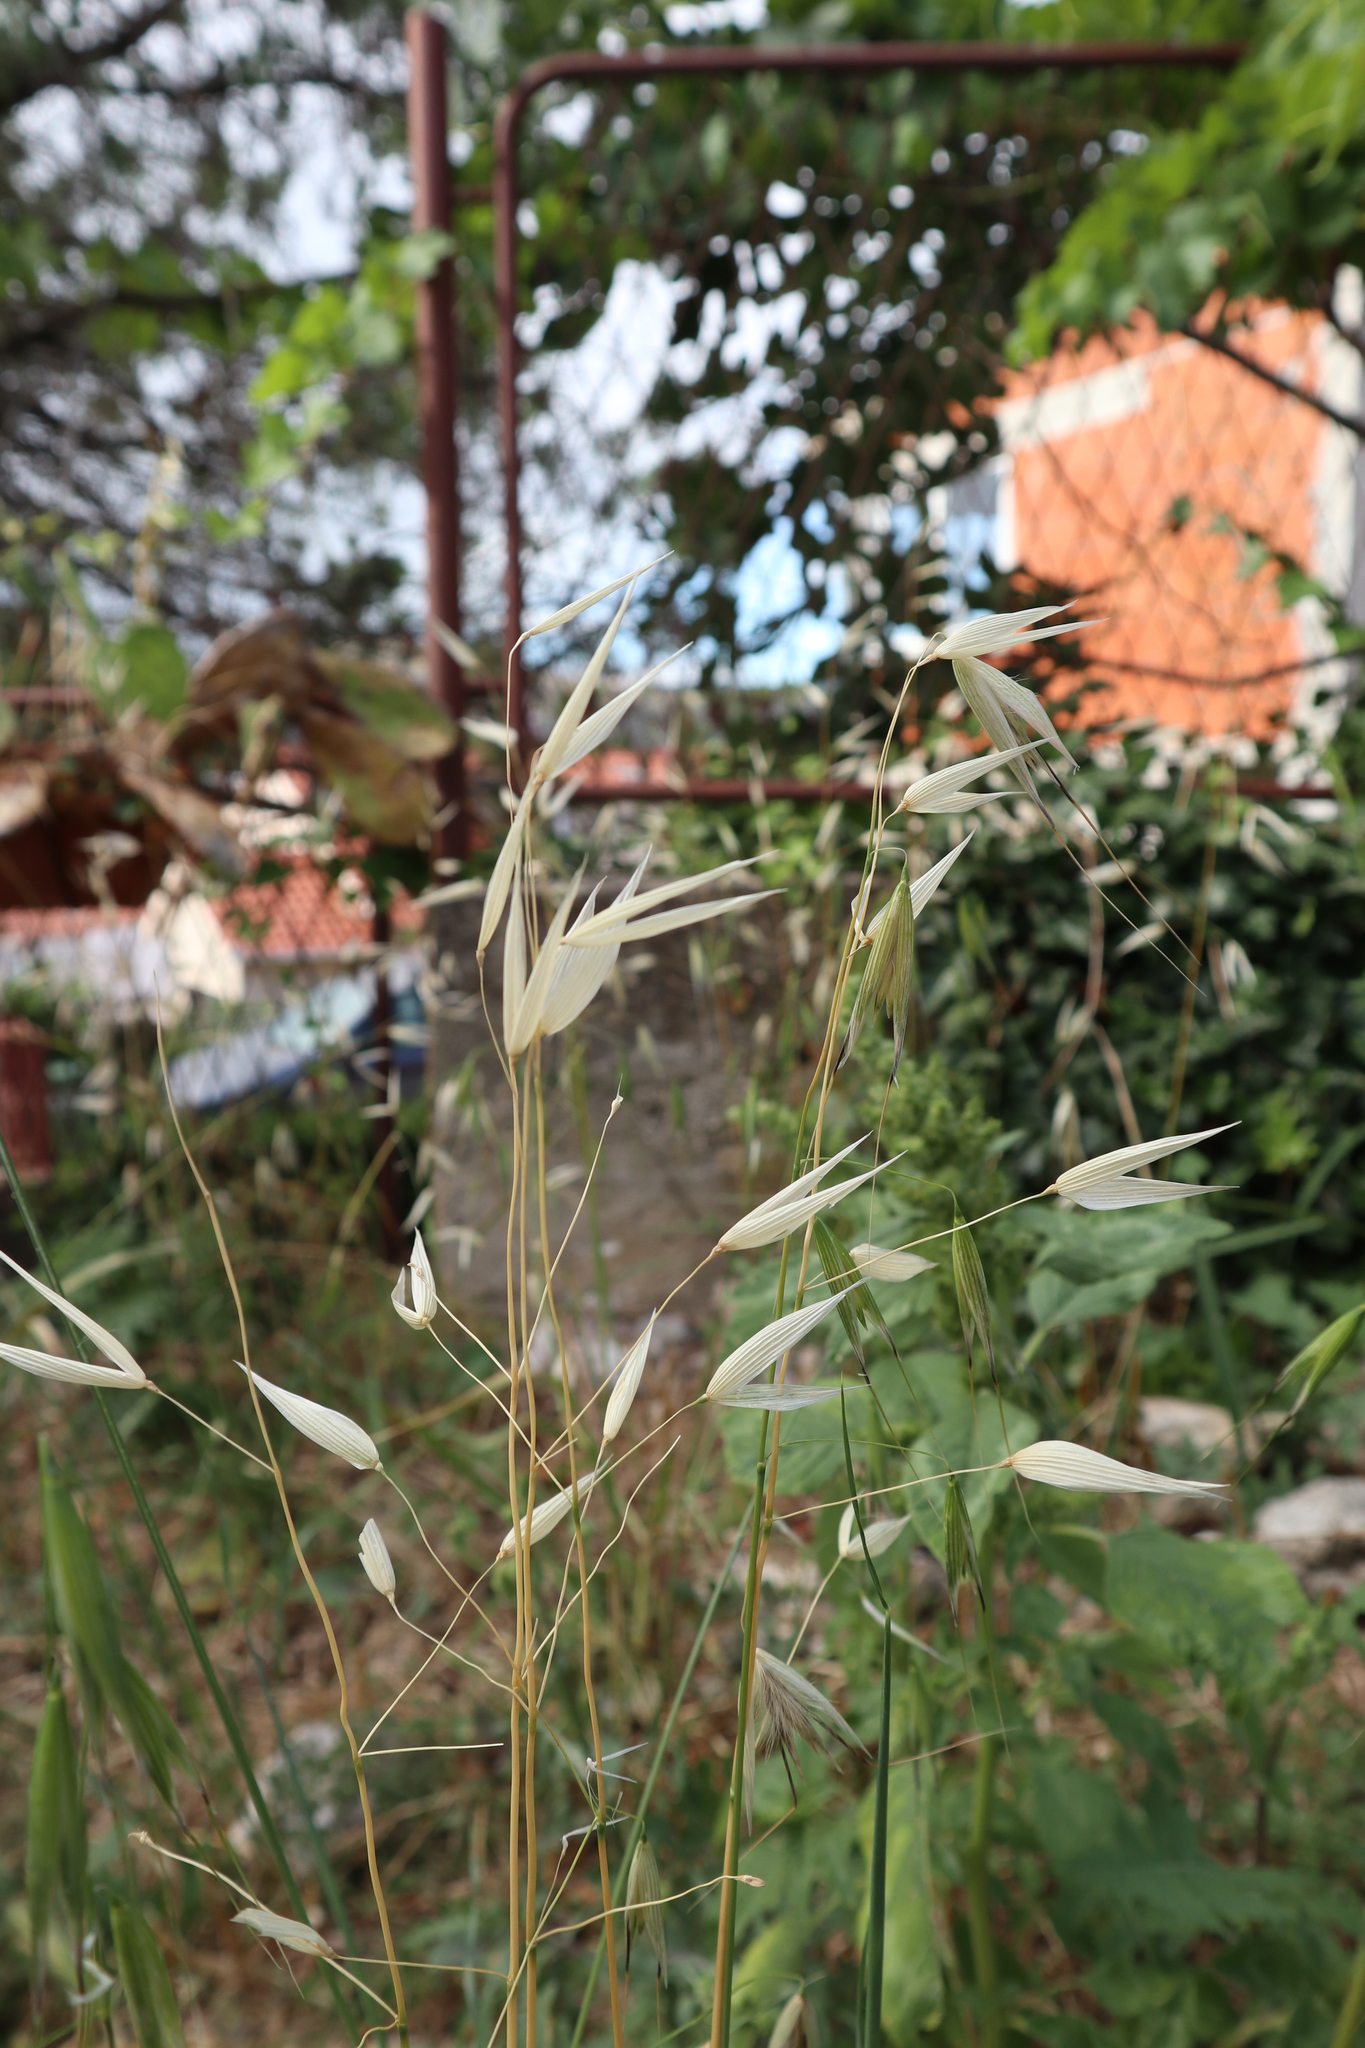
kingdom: Plantae
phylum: Tracheophyta
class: Liliopsida
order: Poales
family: Poaceae
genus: Avena
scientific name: Avena fatua
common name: Wild oat
